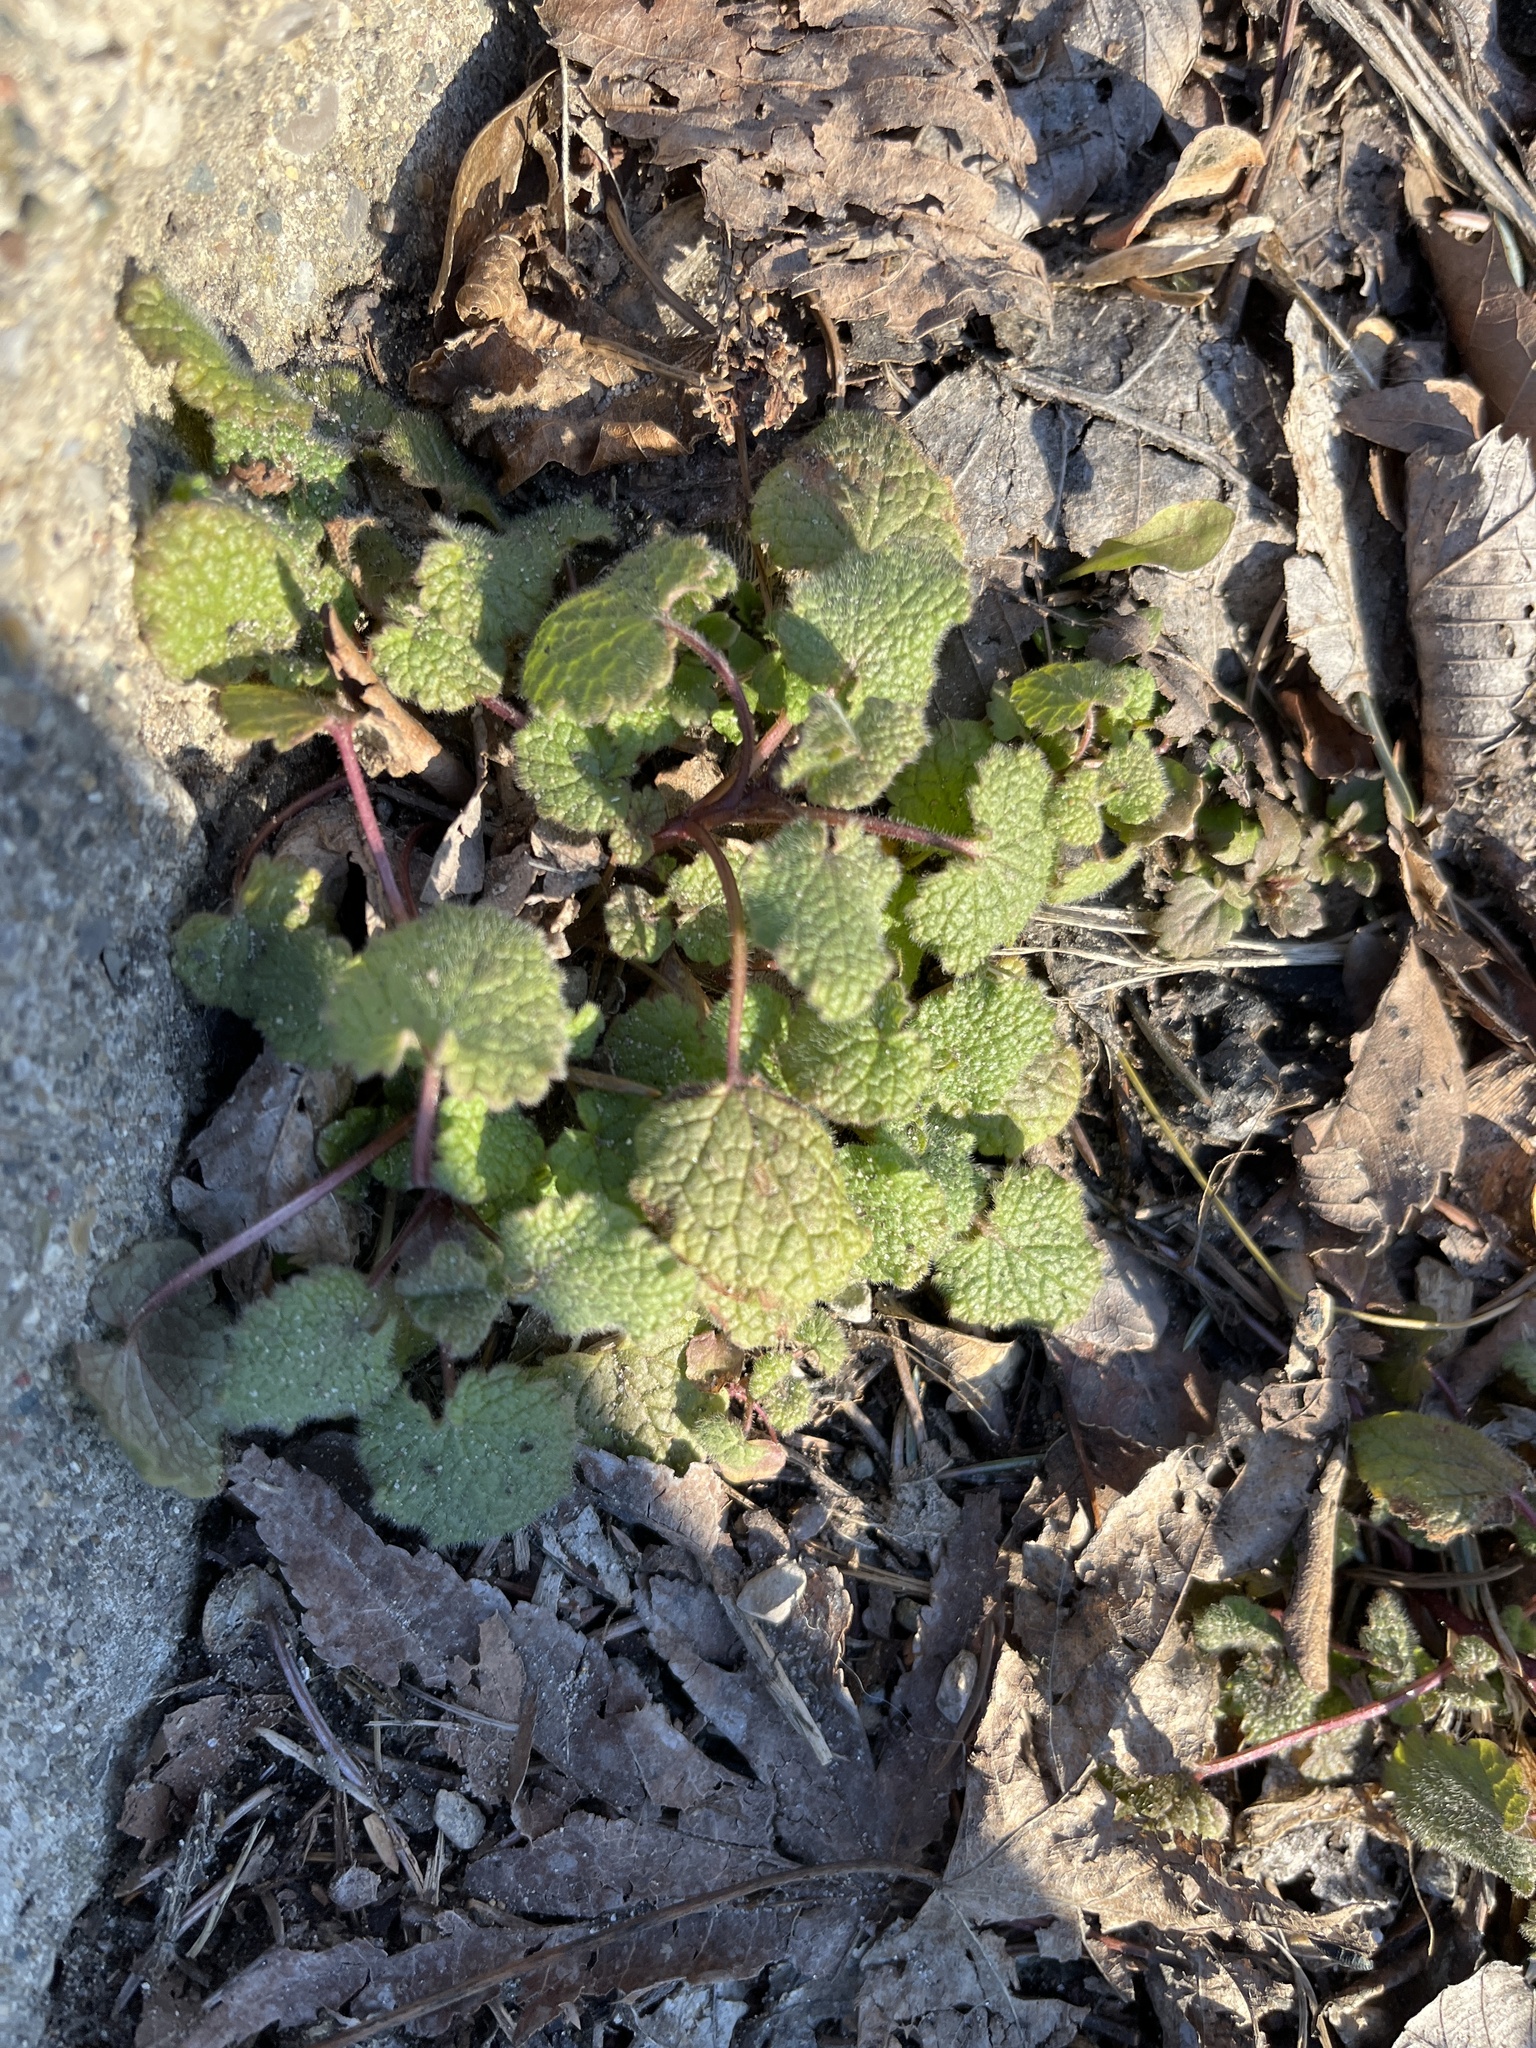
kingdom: Plantae
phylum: Tracheophyta
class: Magnoliopsida
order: Lamiales
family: Lamiaceae
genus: Lamium
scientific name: Lamium purpureum
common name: Red dead-nettle
